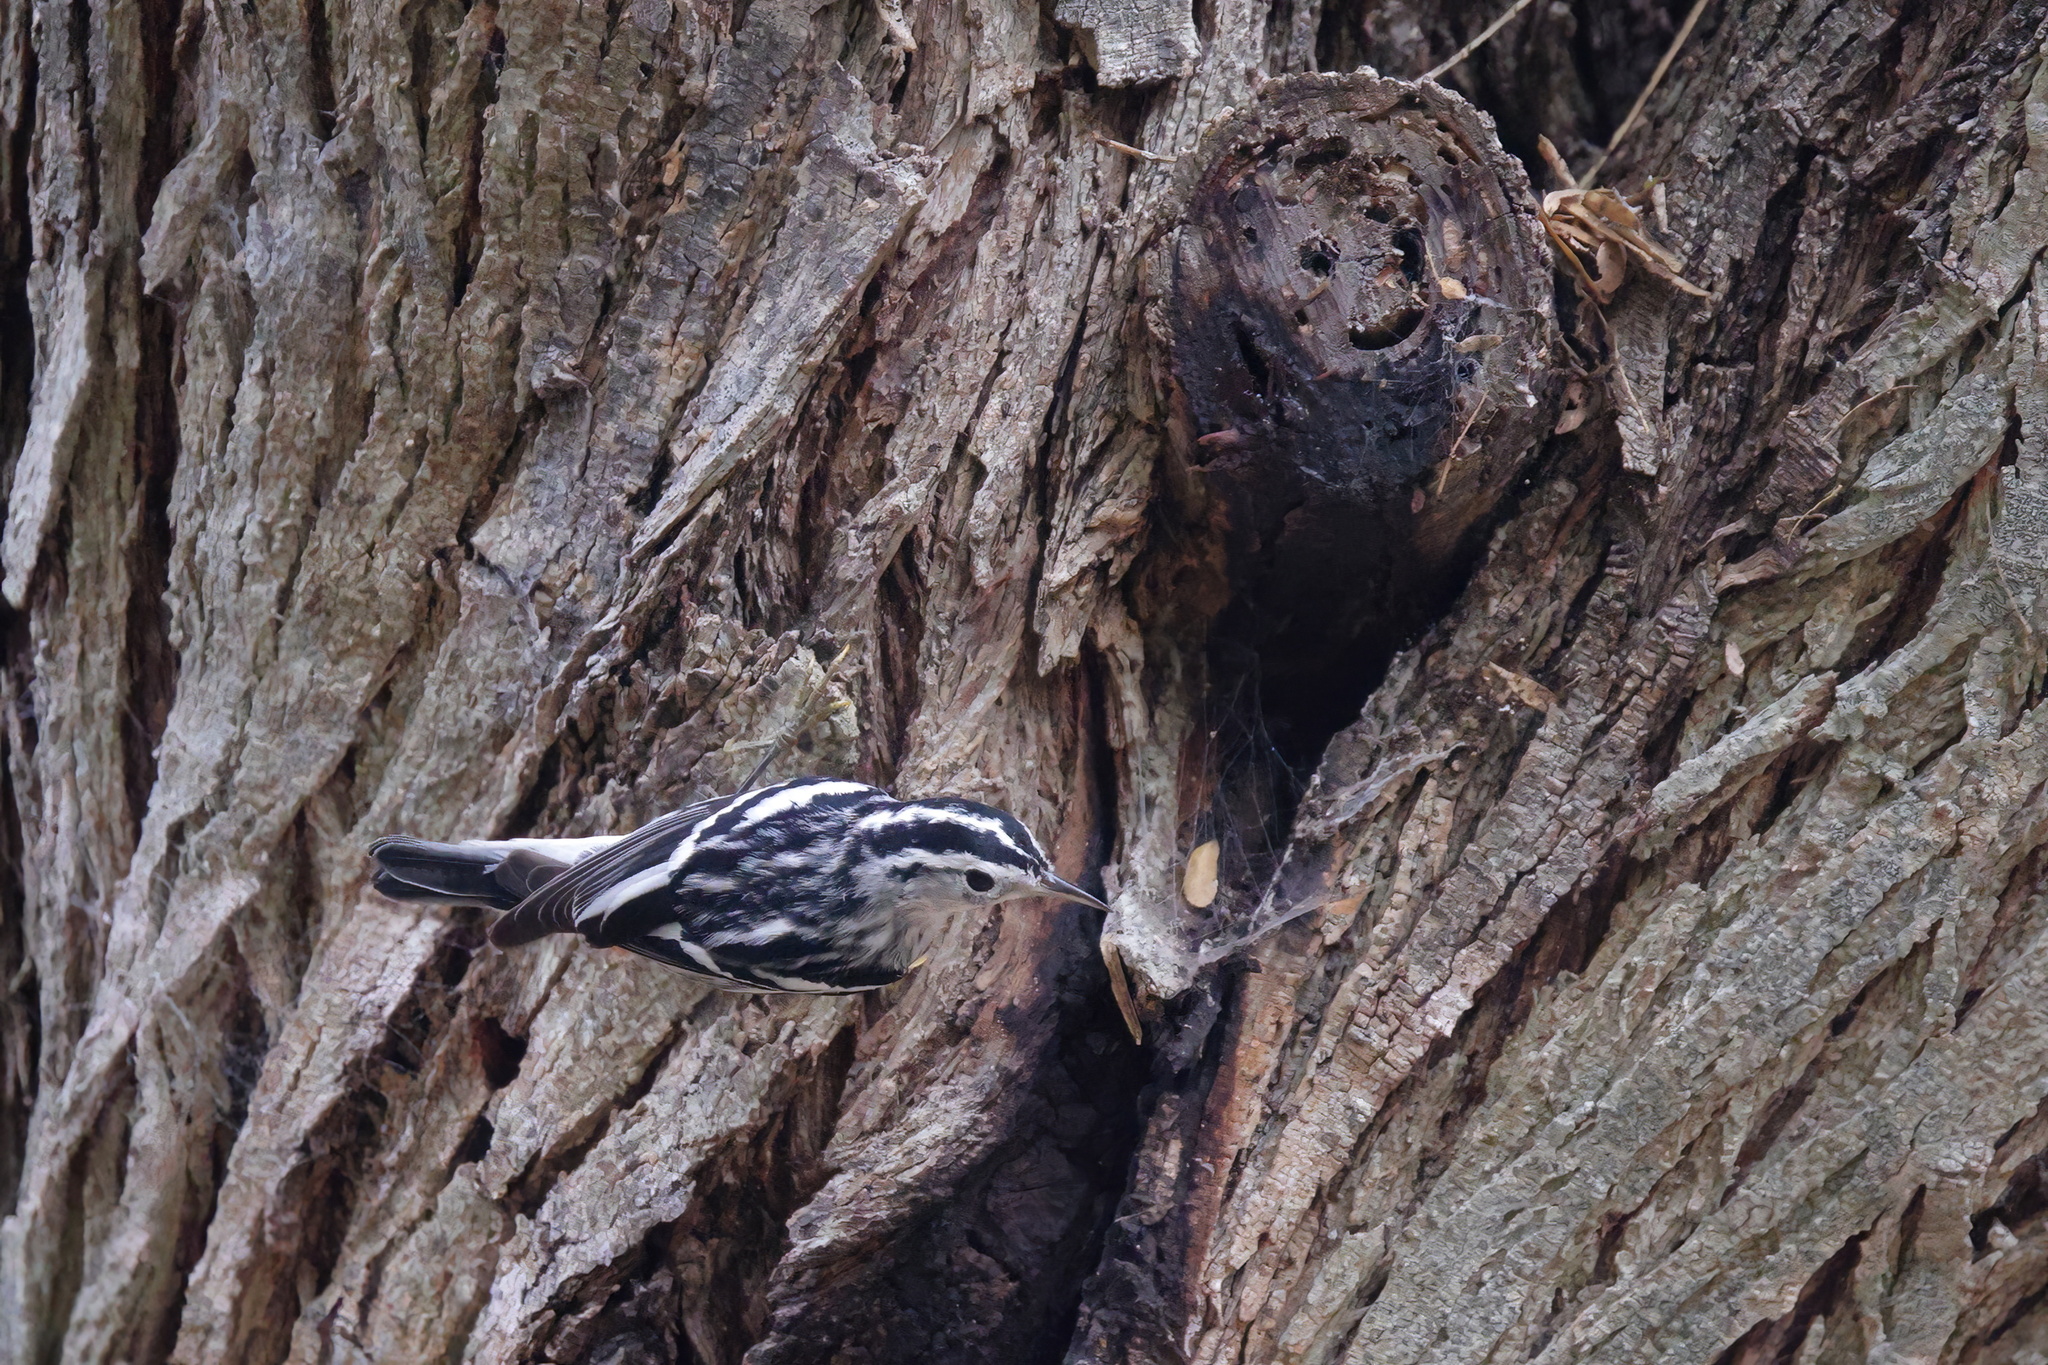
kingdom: Animalia
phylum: Chordata
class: Aves
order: Passeriformes
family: Parulidae
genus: Mniotilta
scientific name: Mniotilta varia
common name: Black-and-white warbler
